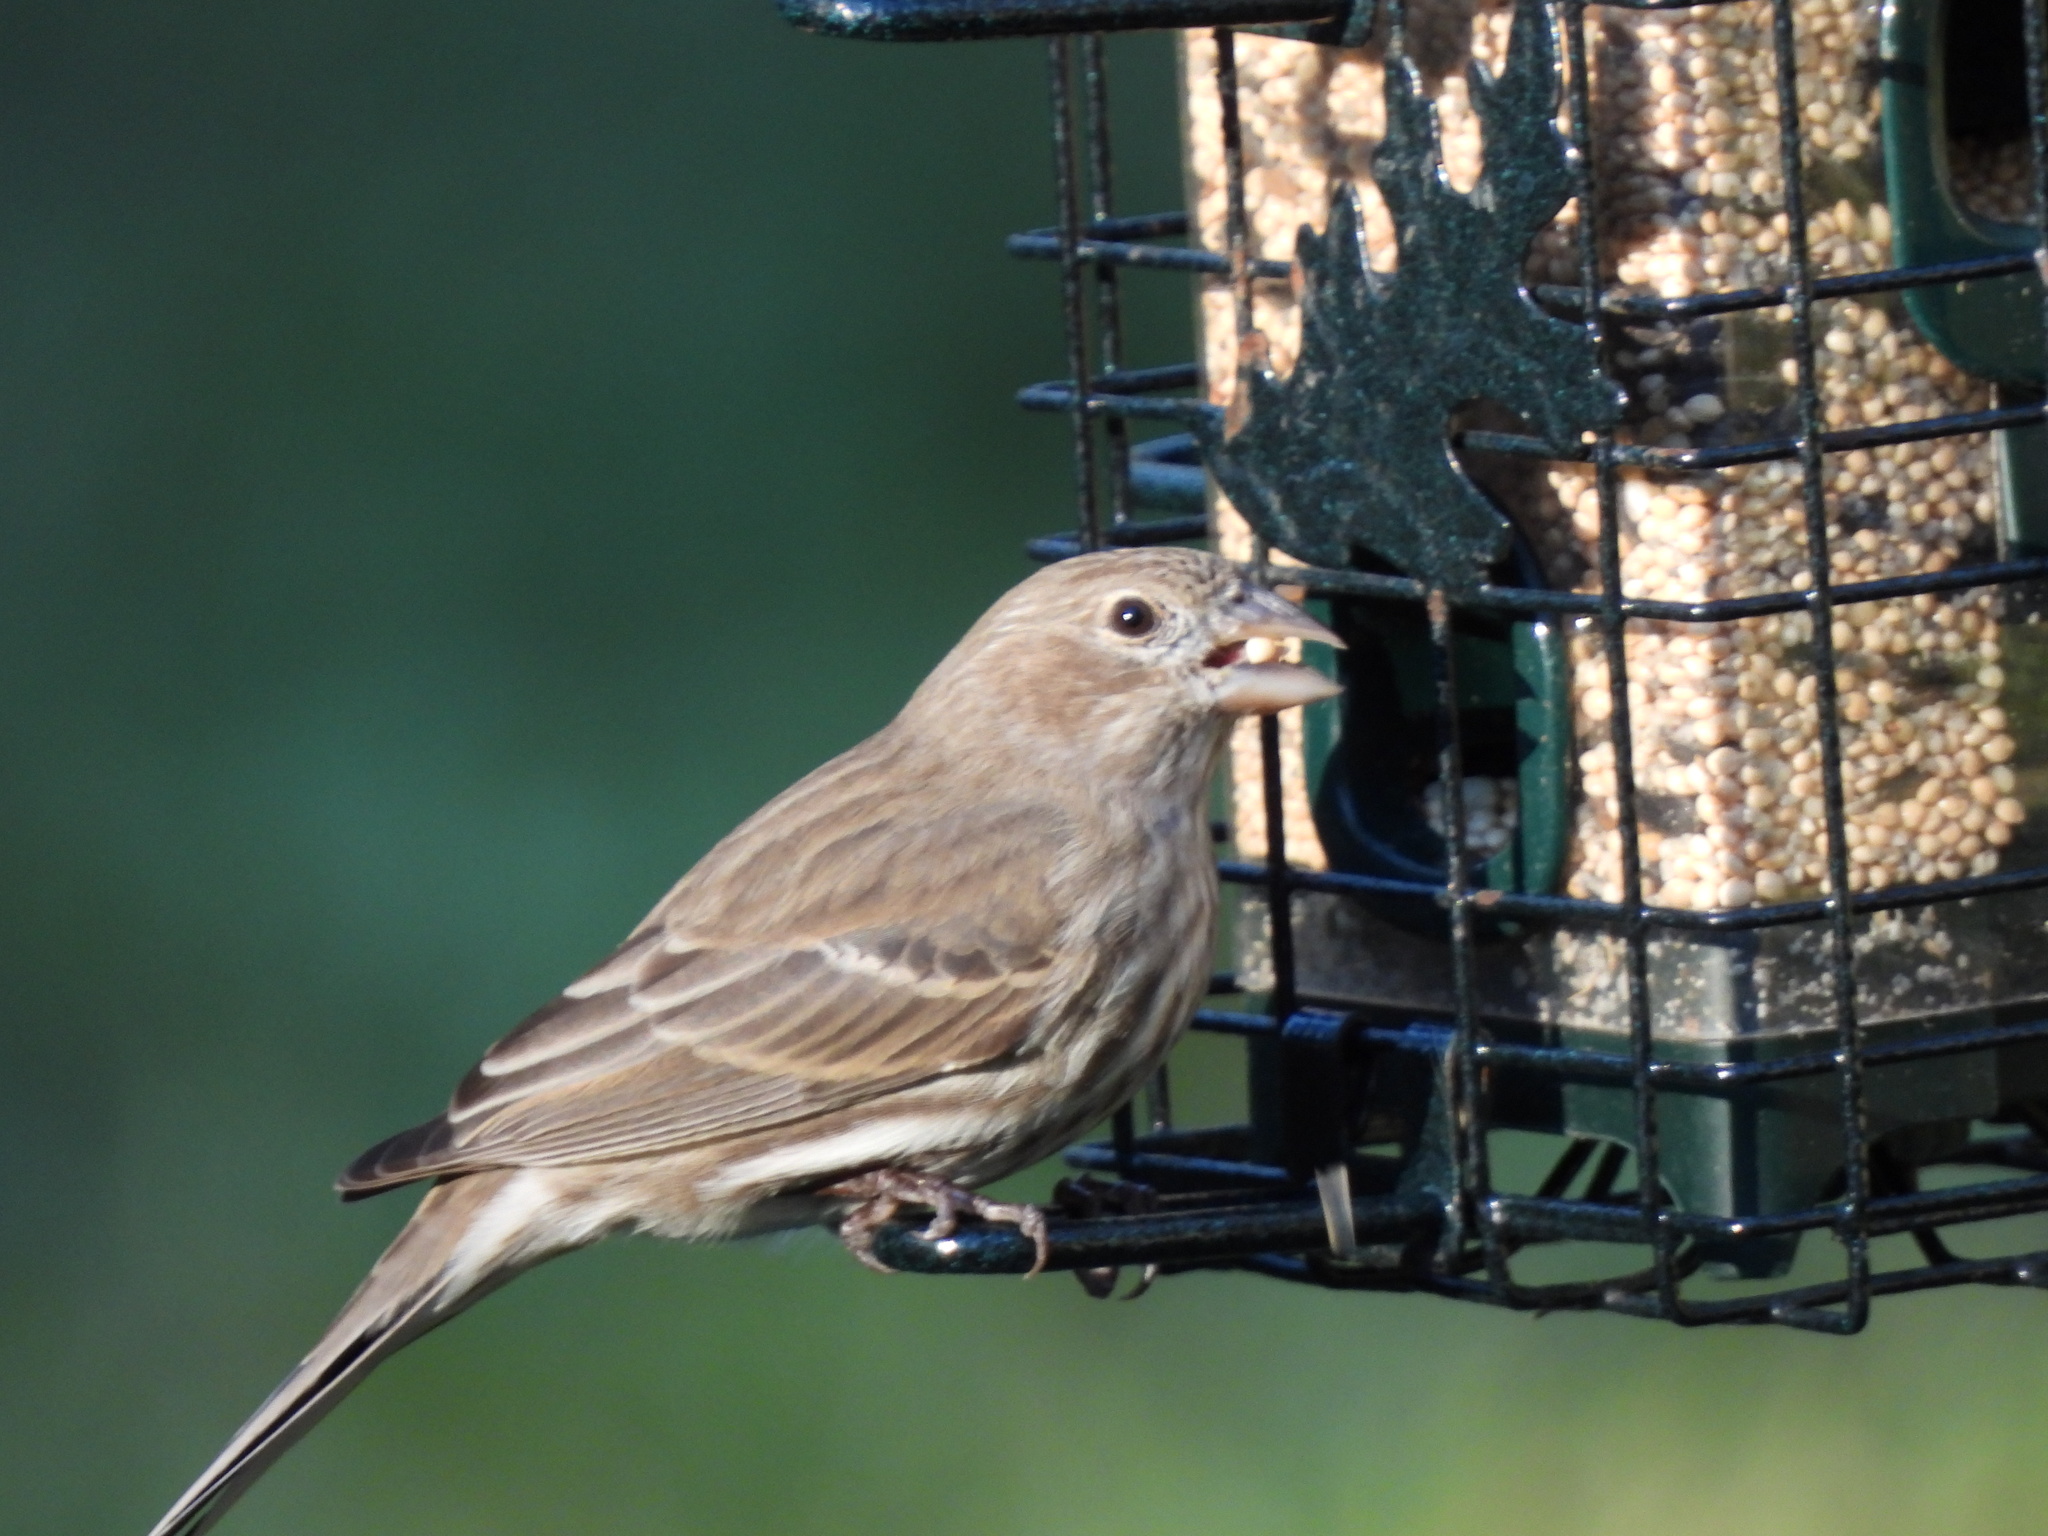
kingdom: Animalia
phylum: Chordata
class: Aves
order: Passeriformes
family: Fringillidae
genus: Haemorhous
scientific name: Haemorhous mexicanus
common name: House finch
